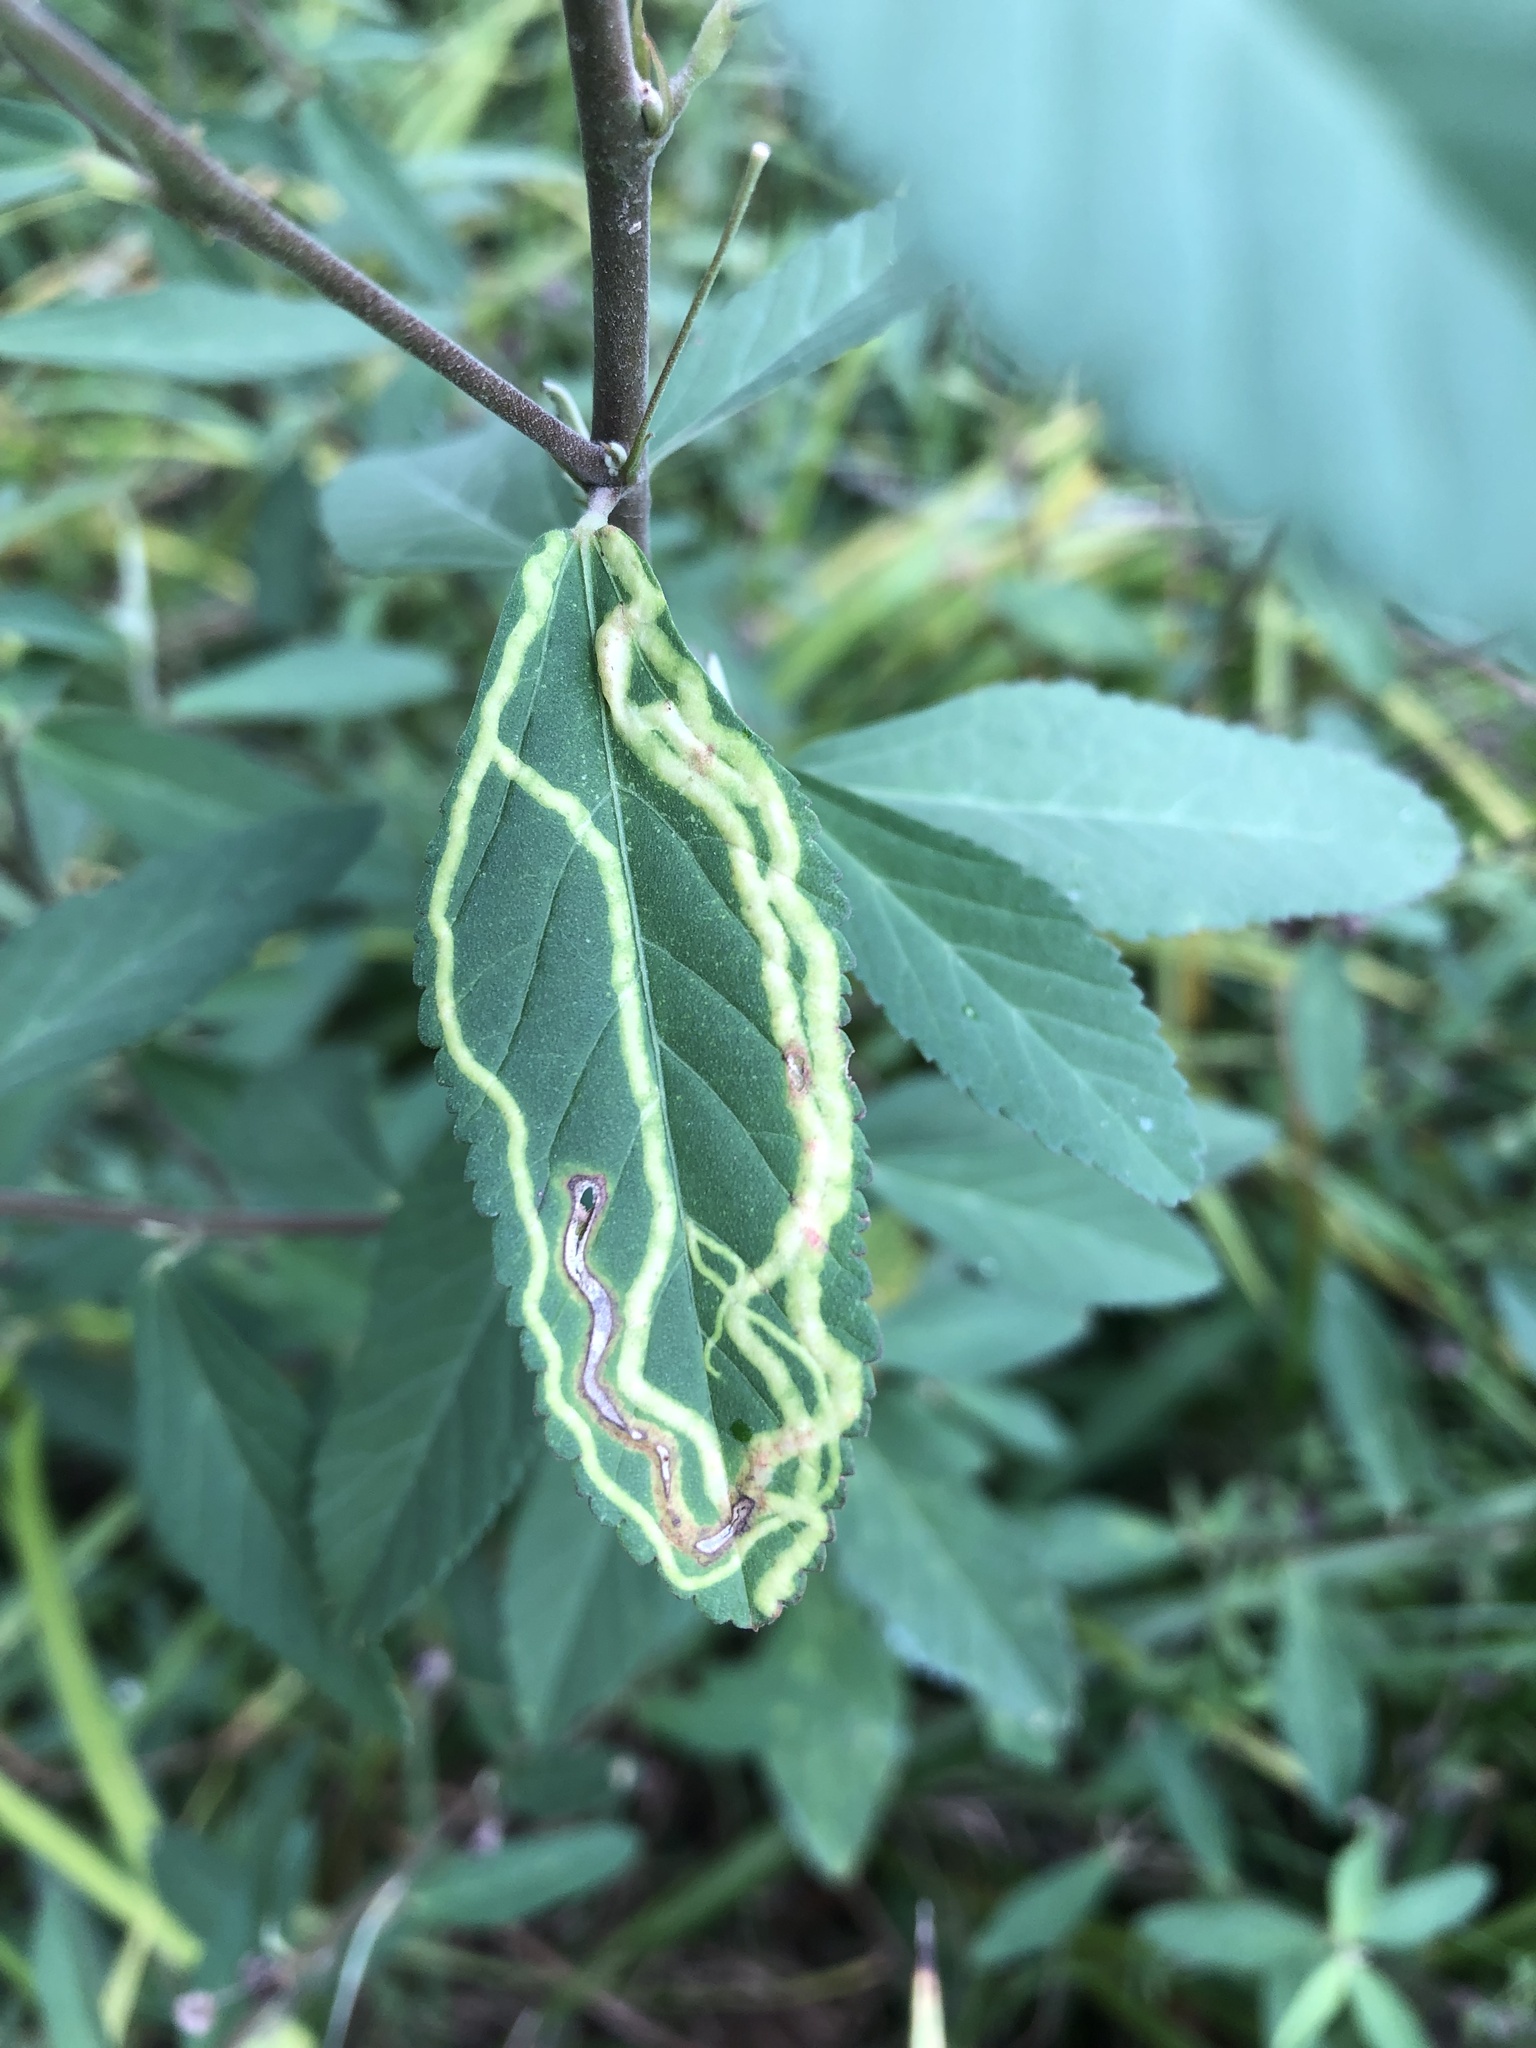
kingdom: Animalia
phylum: Arthropoda
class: Insecta
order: Diptera
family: Agromyzidae
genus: Calycomyza
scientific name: Calycomyza malvae
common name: Mallow leaf miner
